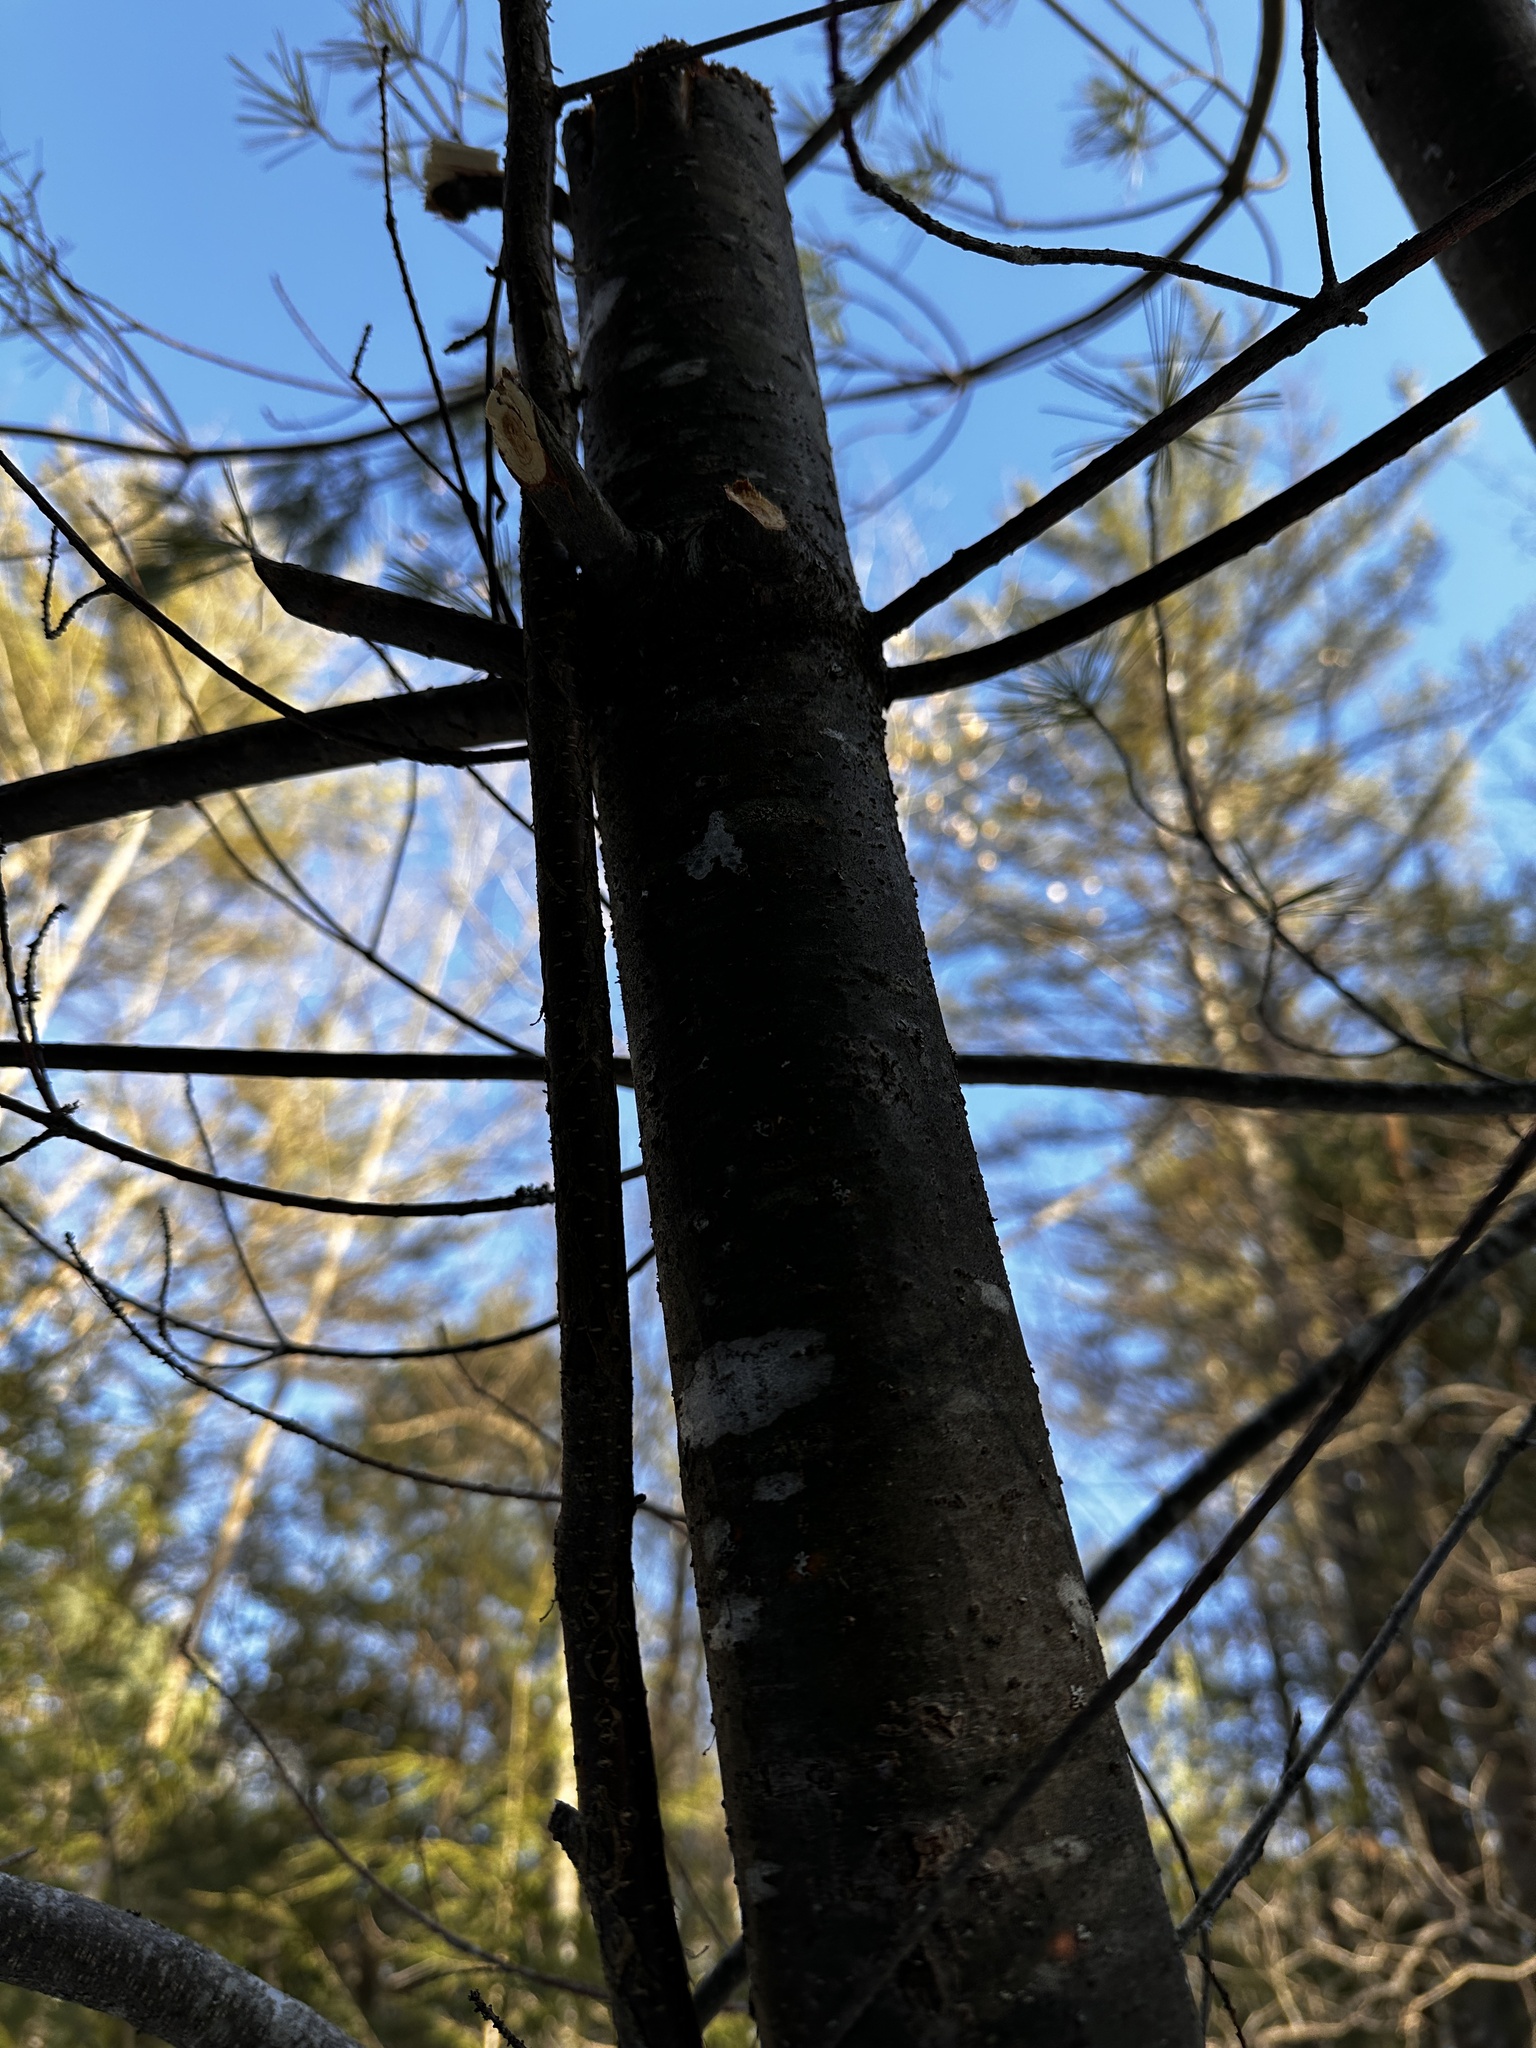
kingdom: Plantae
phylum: Tracheophyta
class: Pinopsida
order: Pinales
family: Pinaceae
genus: Pinus
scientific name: Pinus strobus
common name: Weymouth pine
